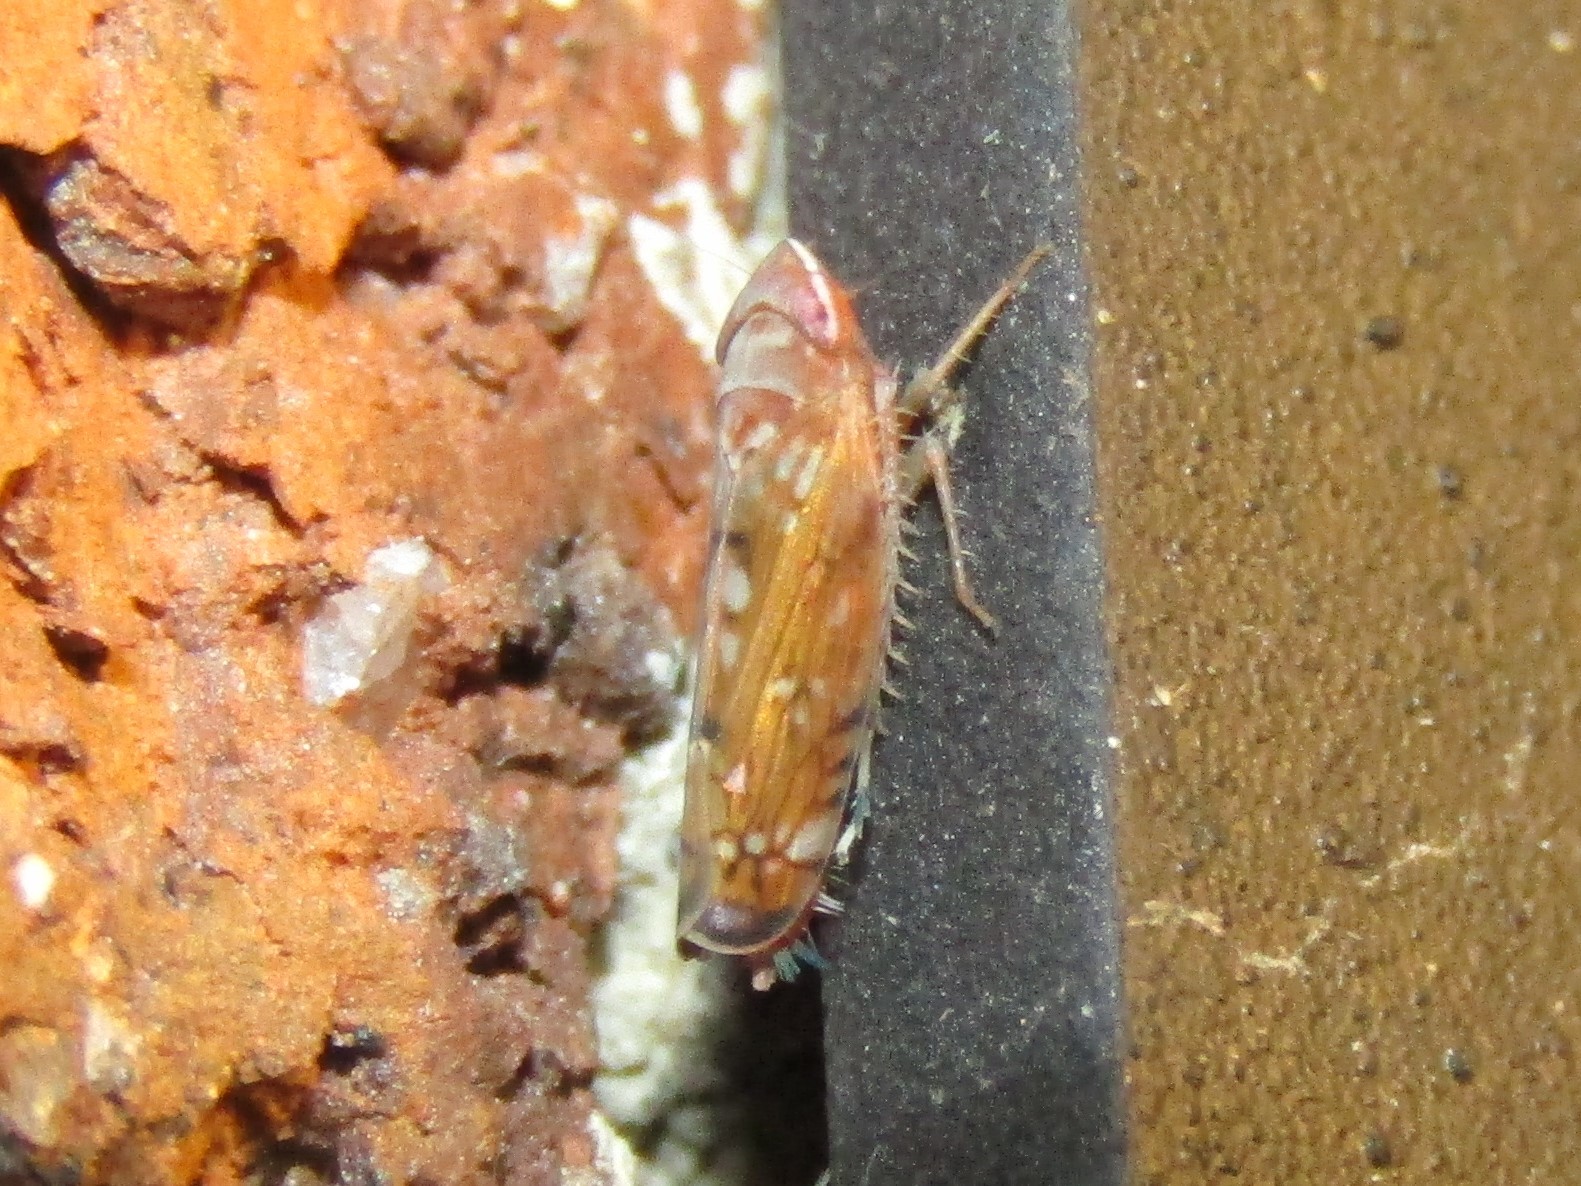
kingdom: Animalia
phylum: Arthropoda
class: Insecta
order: Hemiptera
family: Cicadellidae
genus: Scaphoideus
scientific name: Scaphoideus luteolus
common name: Whitebanded elm leafhopper
